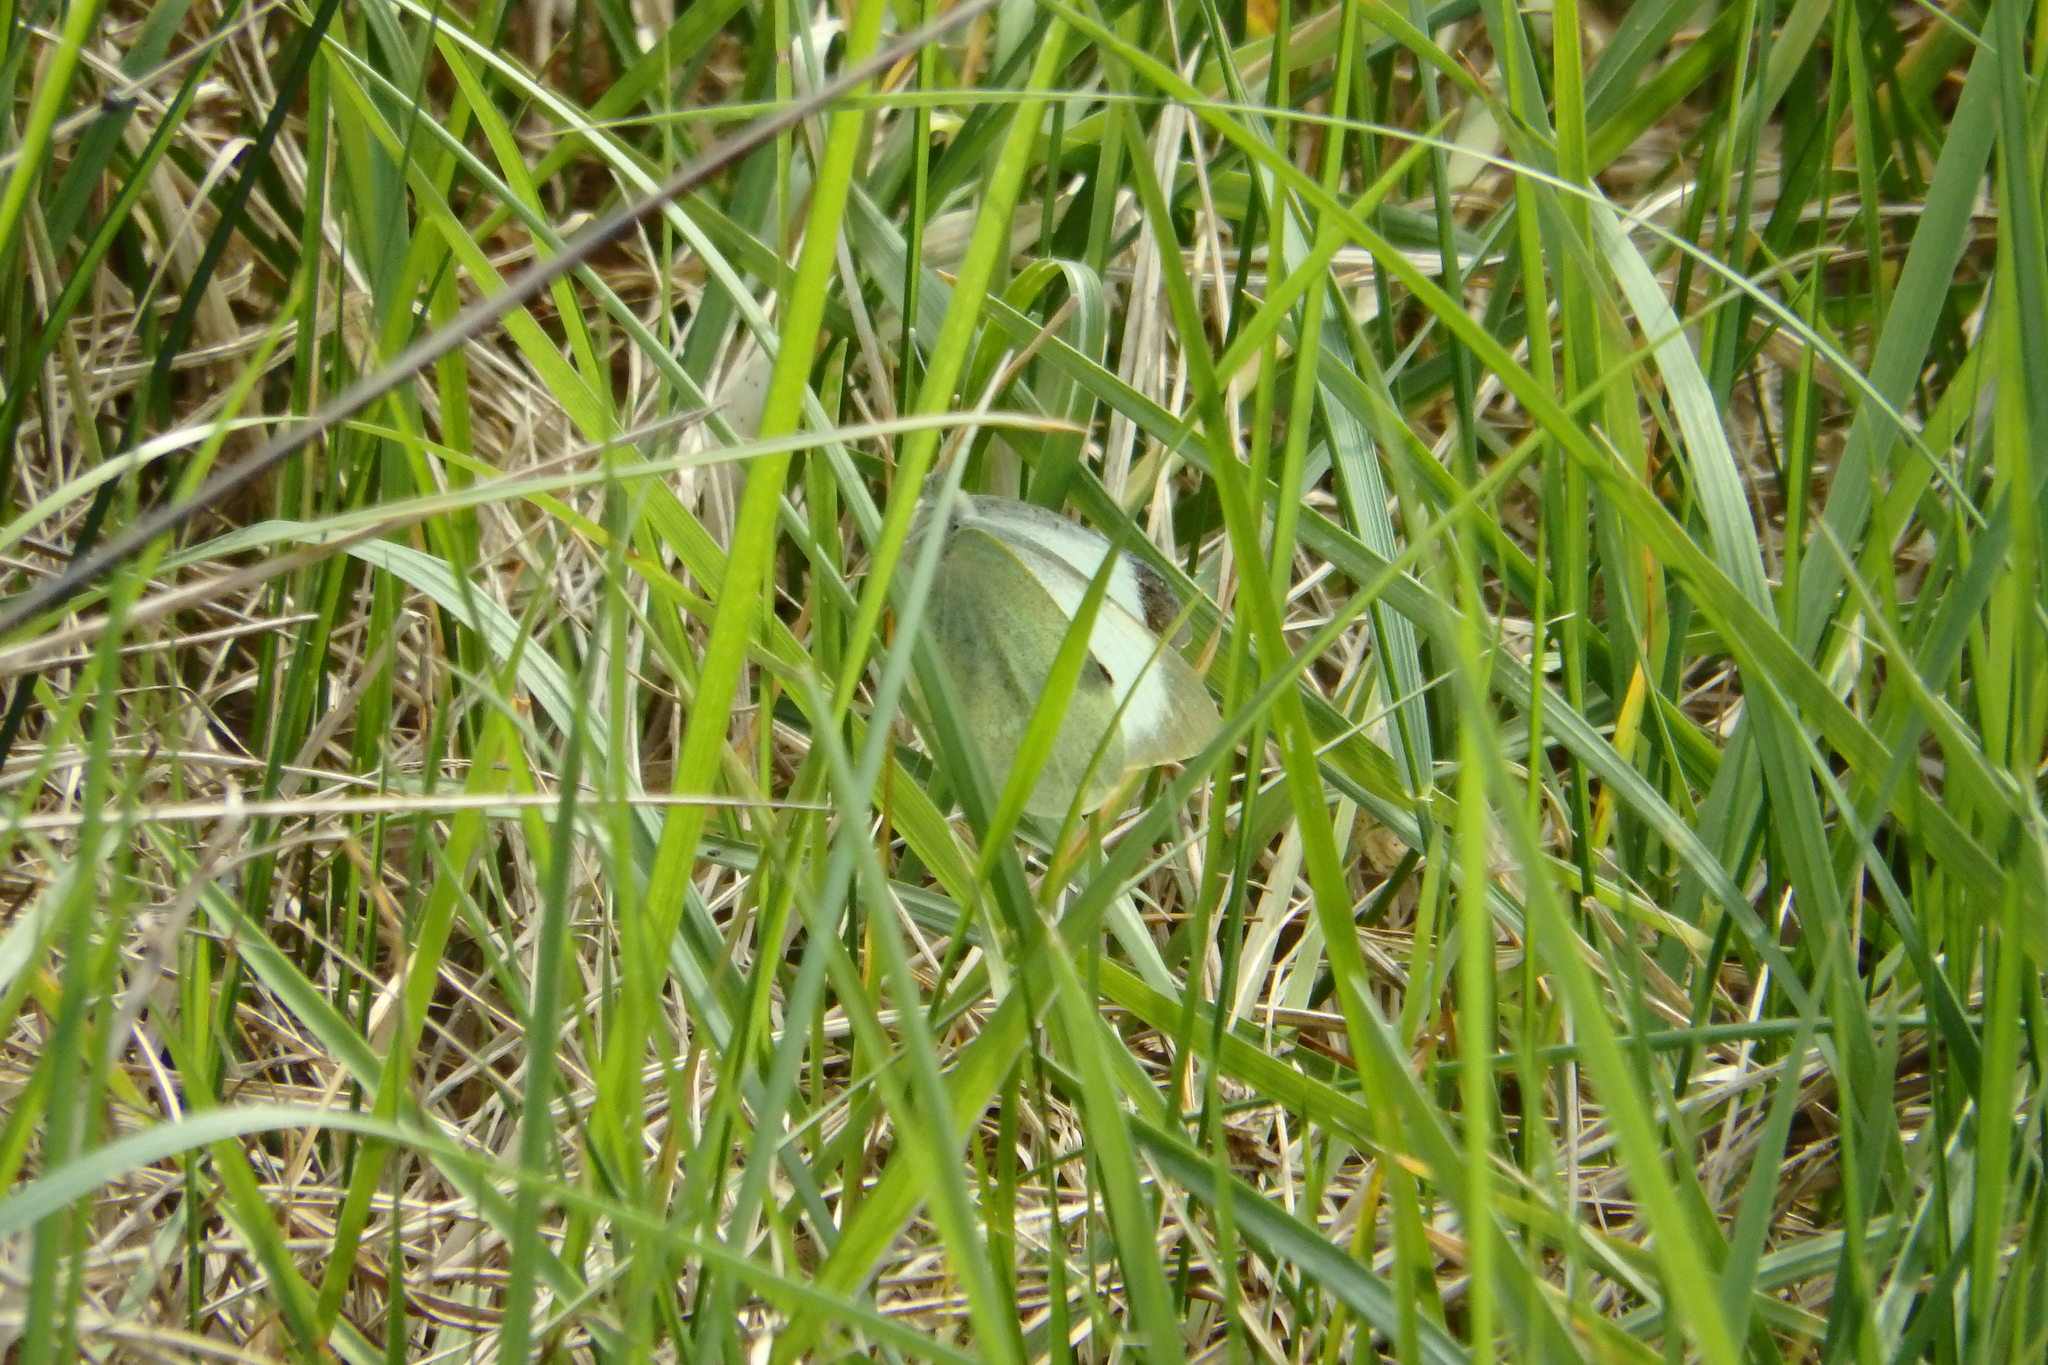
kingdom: Animalia
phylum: Arthropoda
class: Insecta
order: Lepidoptera
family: Pieridae
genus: Pieris
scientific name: Pieris brassicae
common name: Large white
